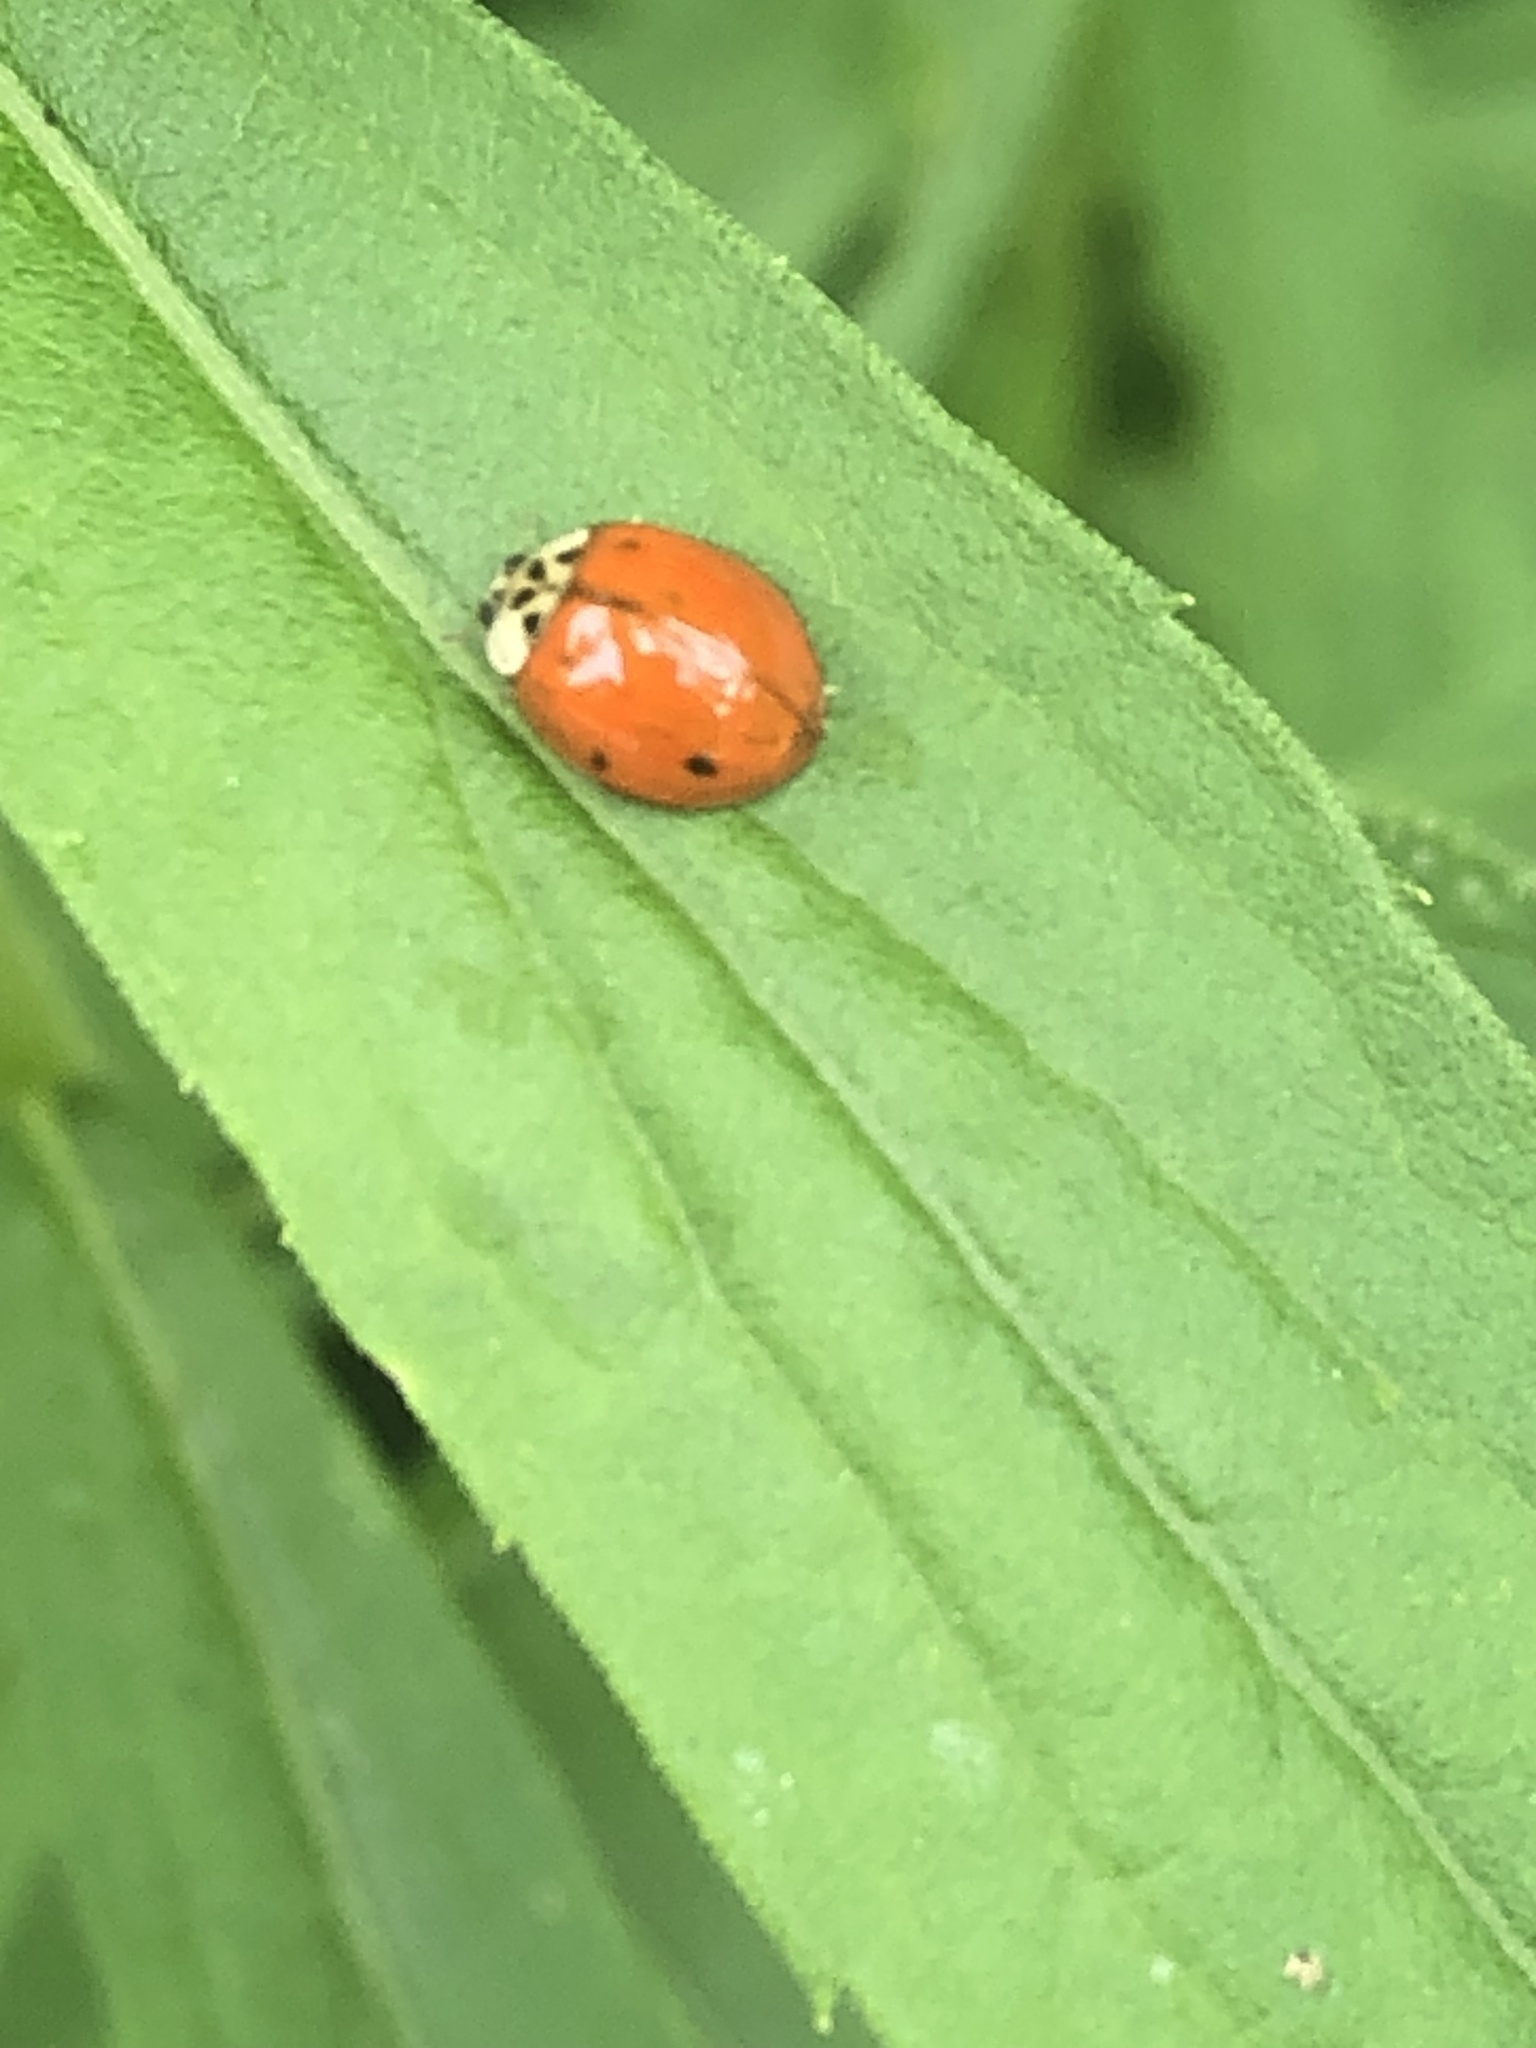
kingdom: Animalia
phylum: Arthropoda
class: Insecta
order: Coleoptera
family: Coccinellidae
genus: Harmonia
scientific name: Harmonia axyridis
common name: Harlequin ladybird
